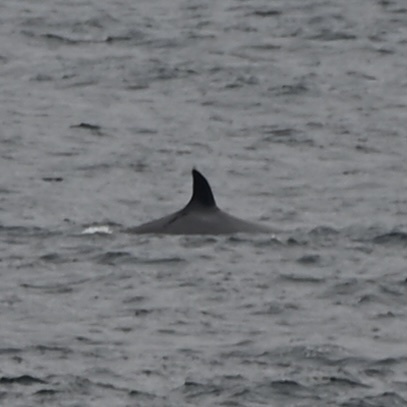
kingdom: Animalia
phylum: Chordata
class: Mammalia
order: Cetacea
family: Balaenopteridae
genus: Balaenoptera
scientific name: Balaenoptera acutorostrata
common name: Common minke whale
